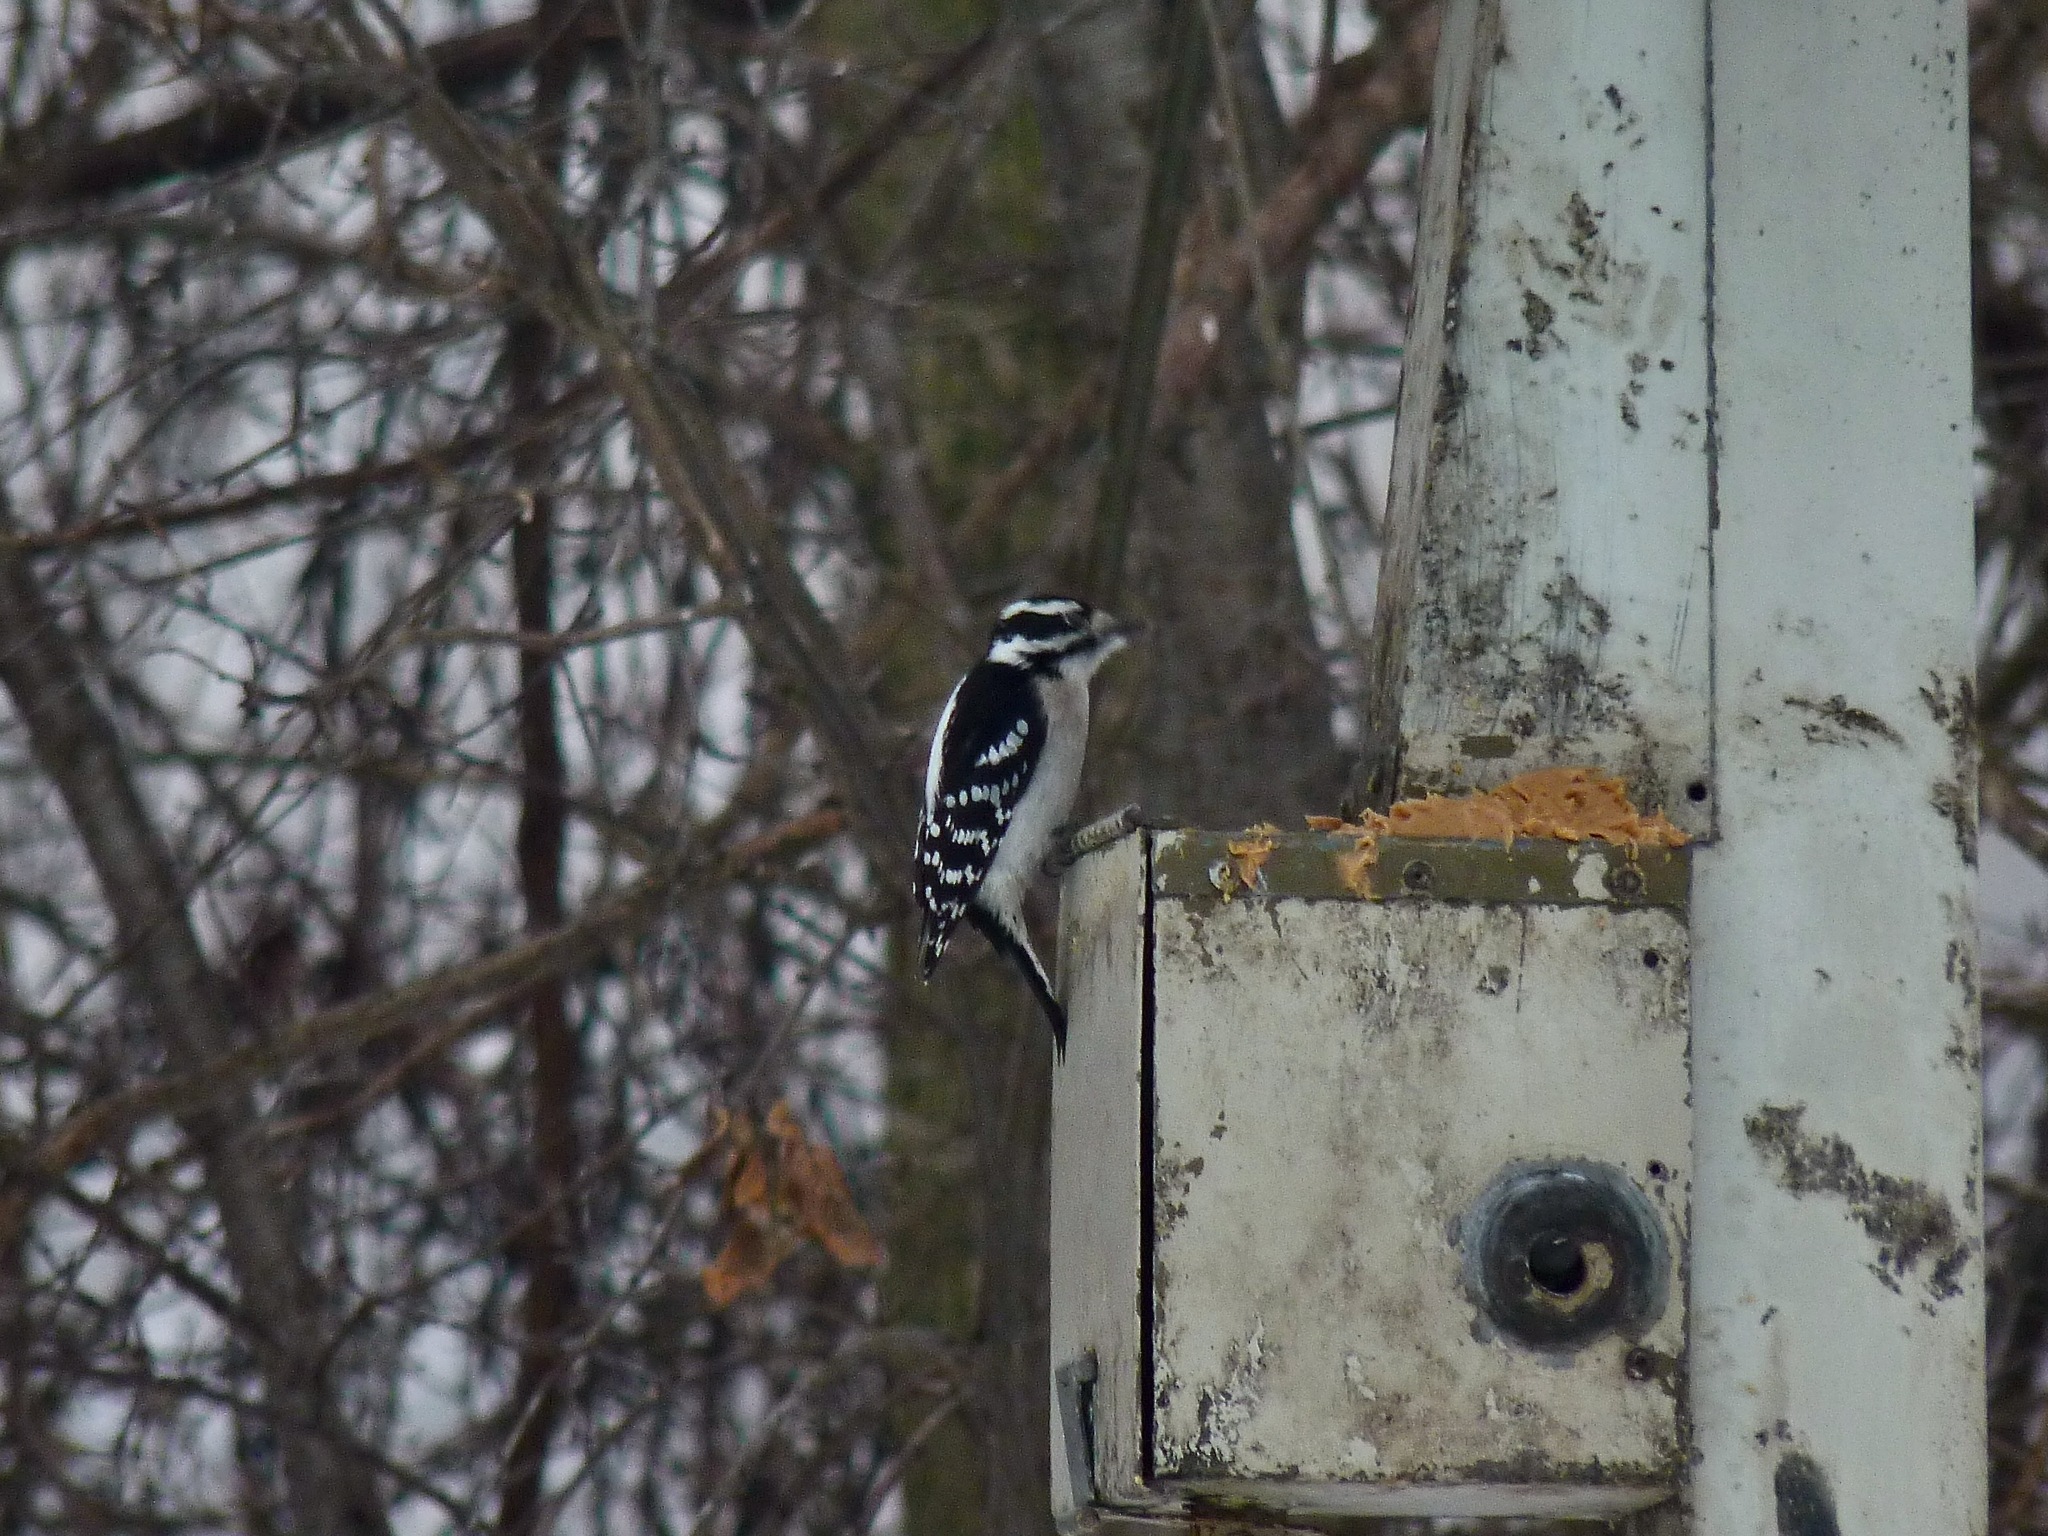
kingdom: Animalia
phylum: Chordata
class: Aves
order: Piciformes
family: Picidae
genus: Dryobates
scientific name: Dryobates pubescens
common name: Downy woodpecker
